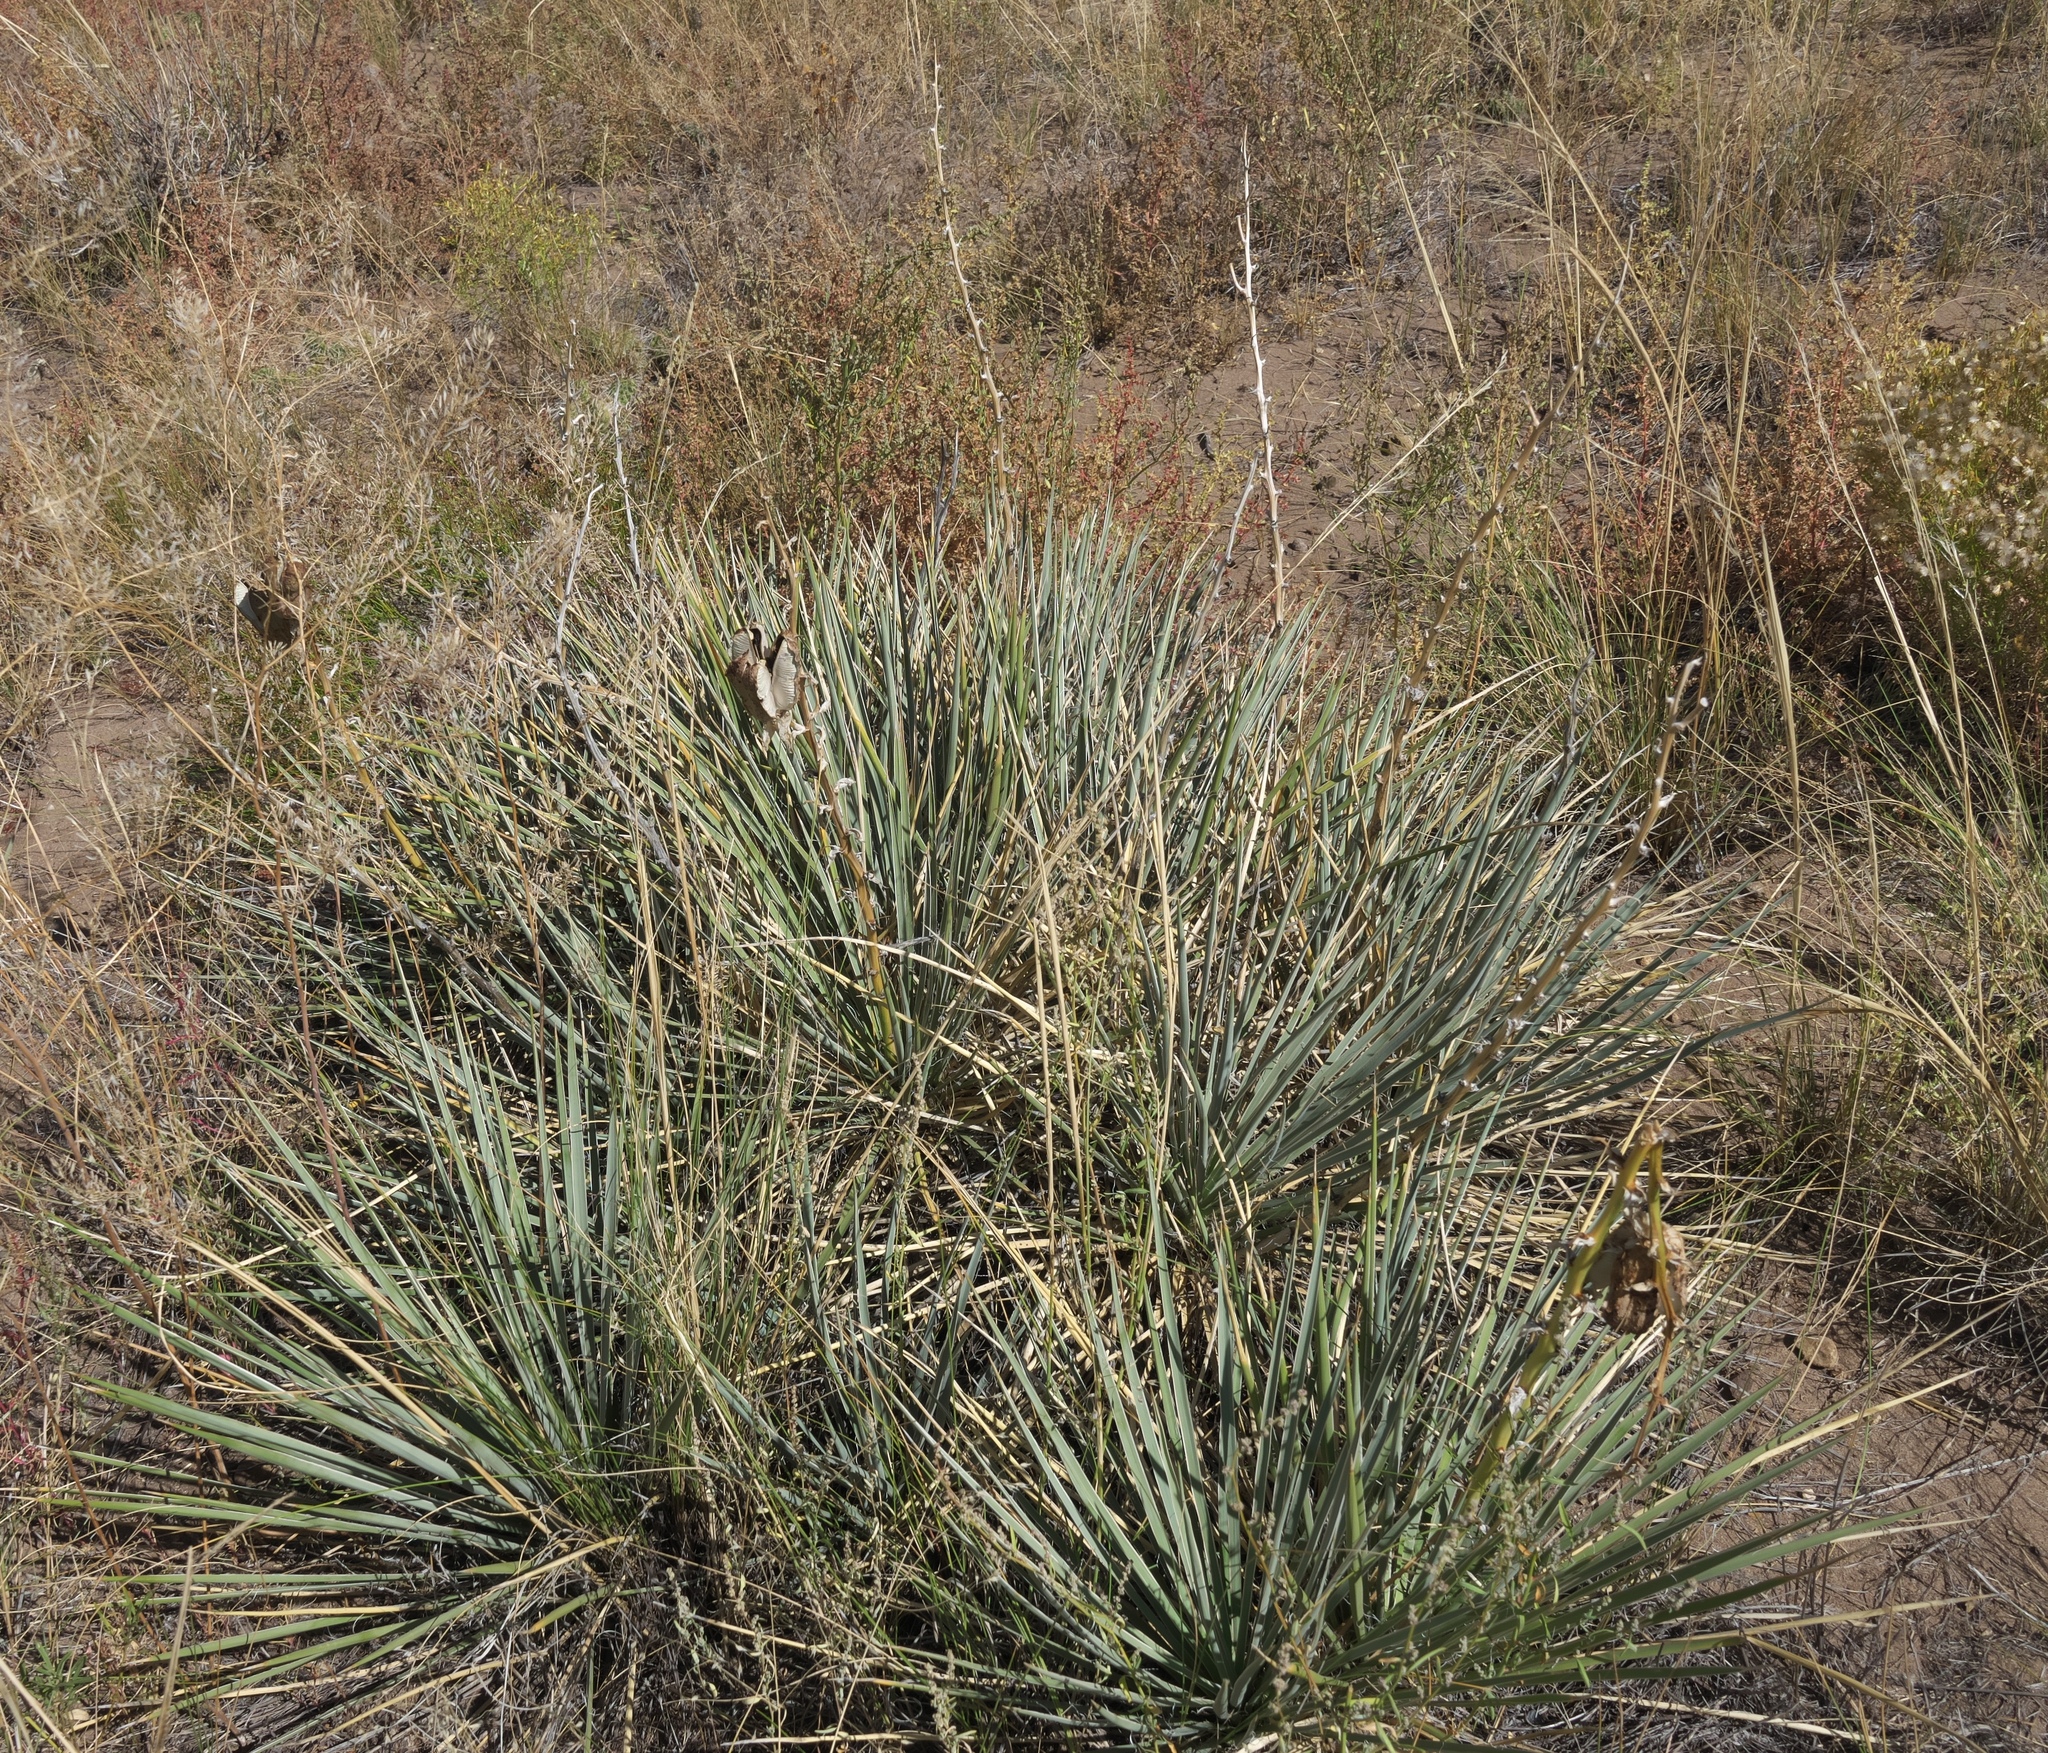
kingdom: Plantae
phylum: Tracheophyta
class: Liliopsida
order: Asparagales
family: Asparagaceae
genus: Yucca
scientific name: Yucca glauca
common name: Great plains yucca
